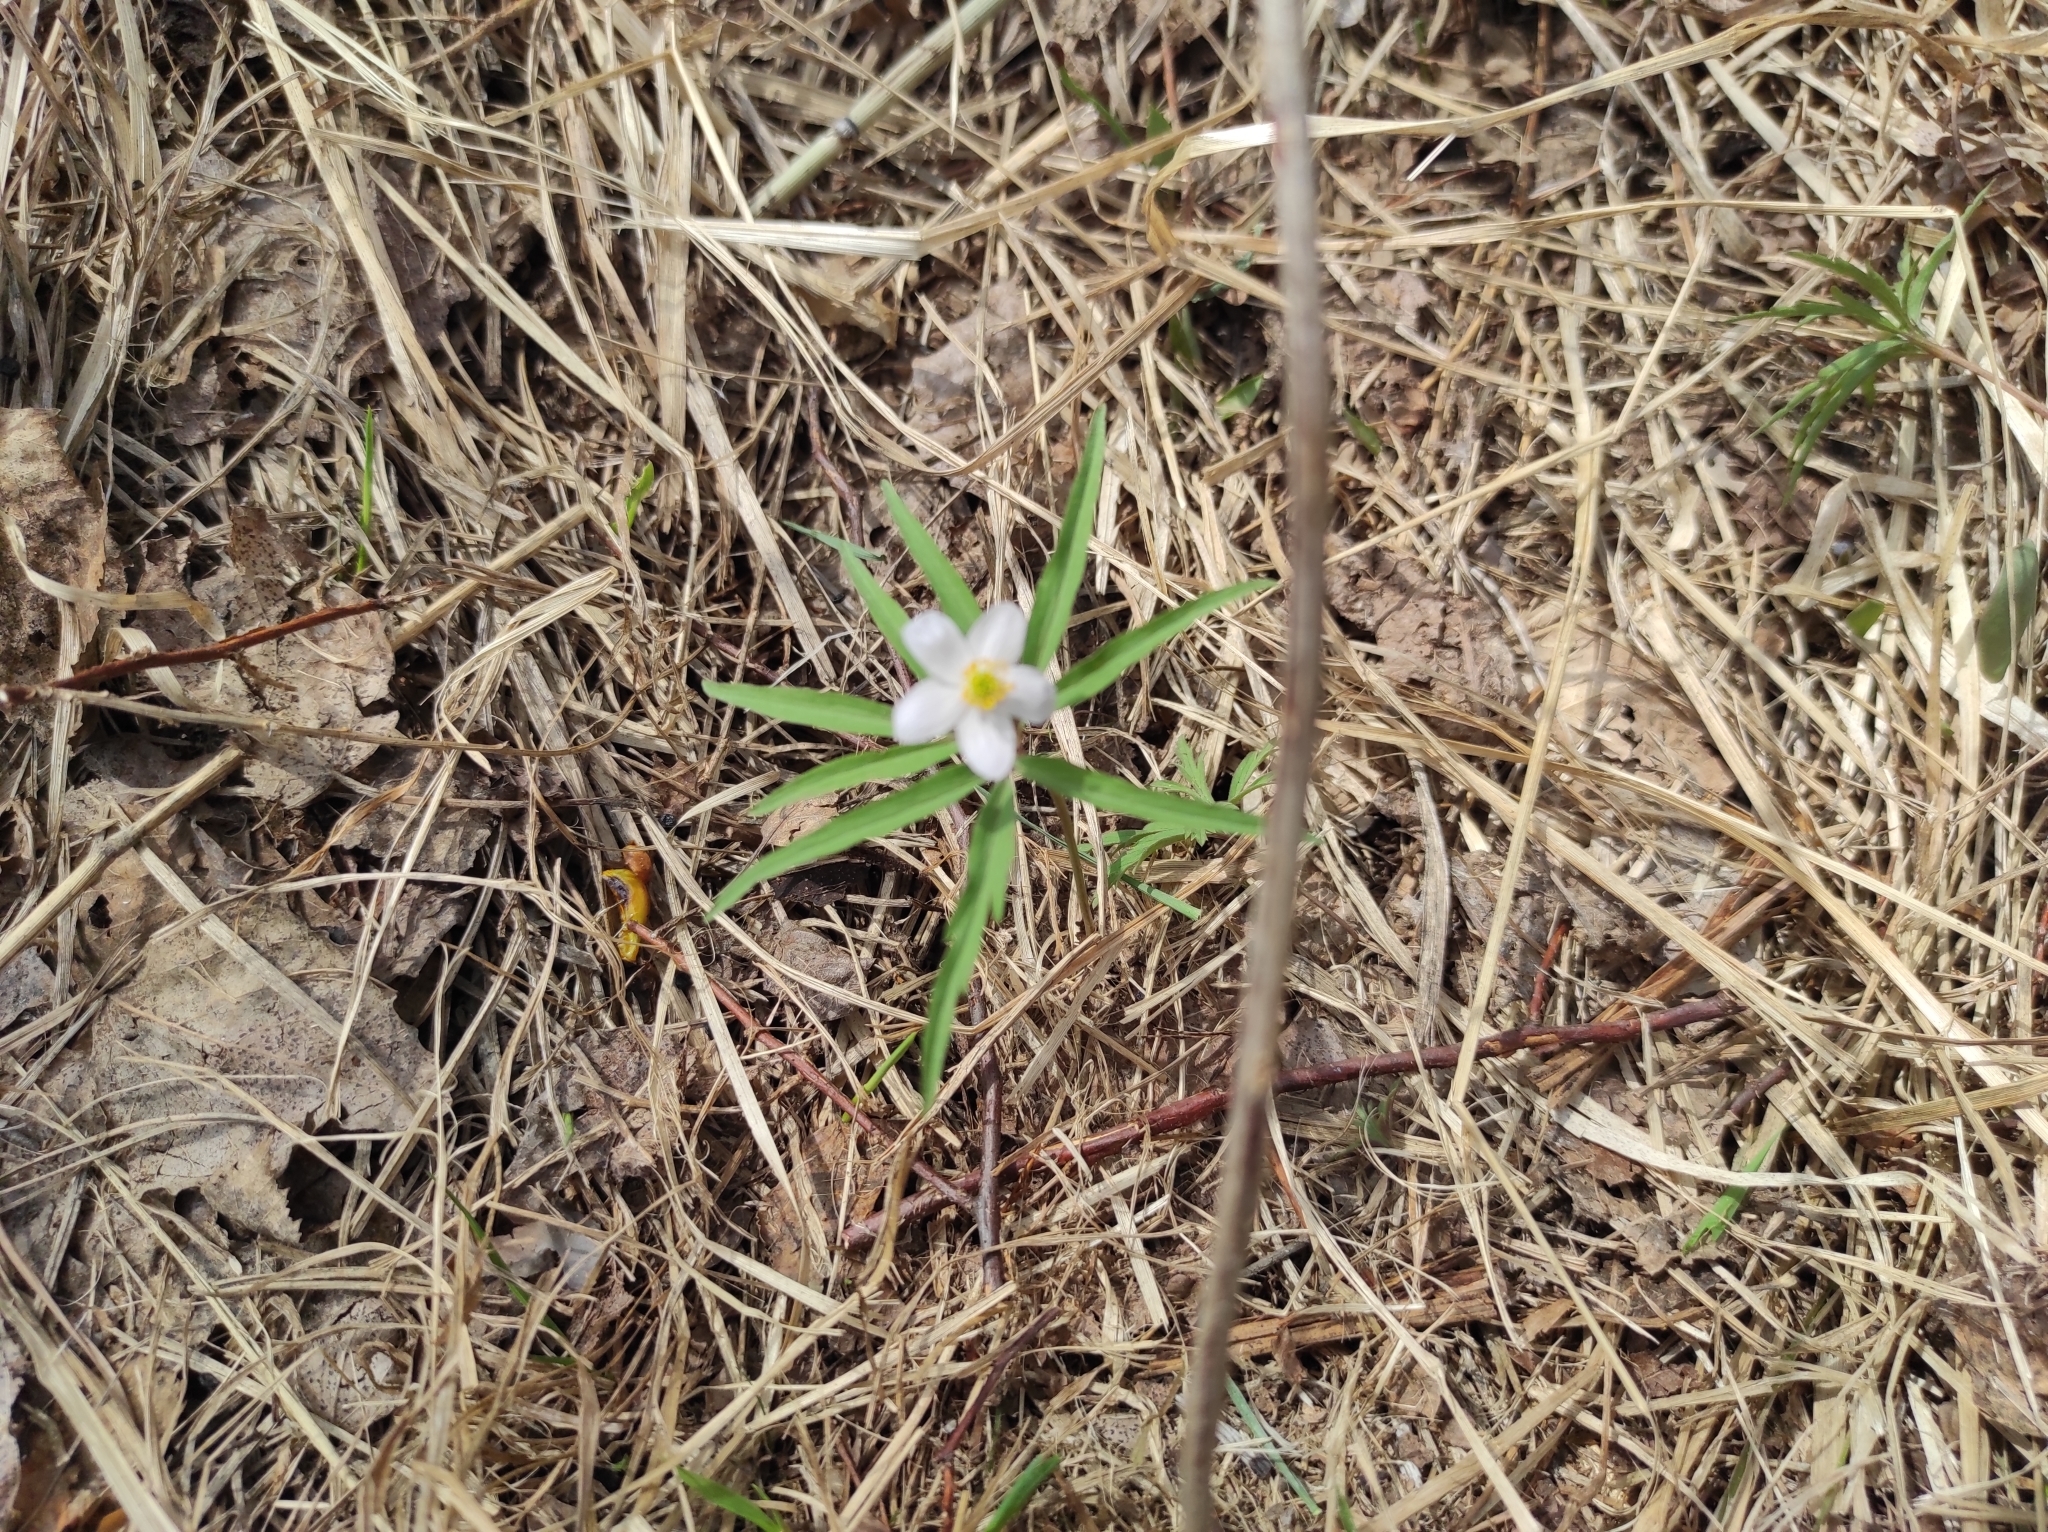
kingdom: Plantae
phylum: Tracheophyta
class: Magnoliopsida
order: Ranunculales
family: Ranunculaceae
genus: Anemone
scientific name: Anemone caerulea
